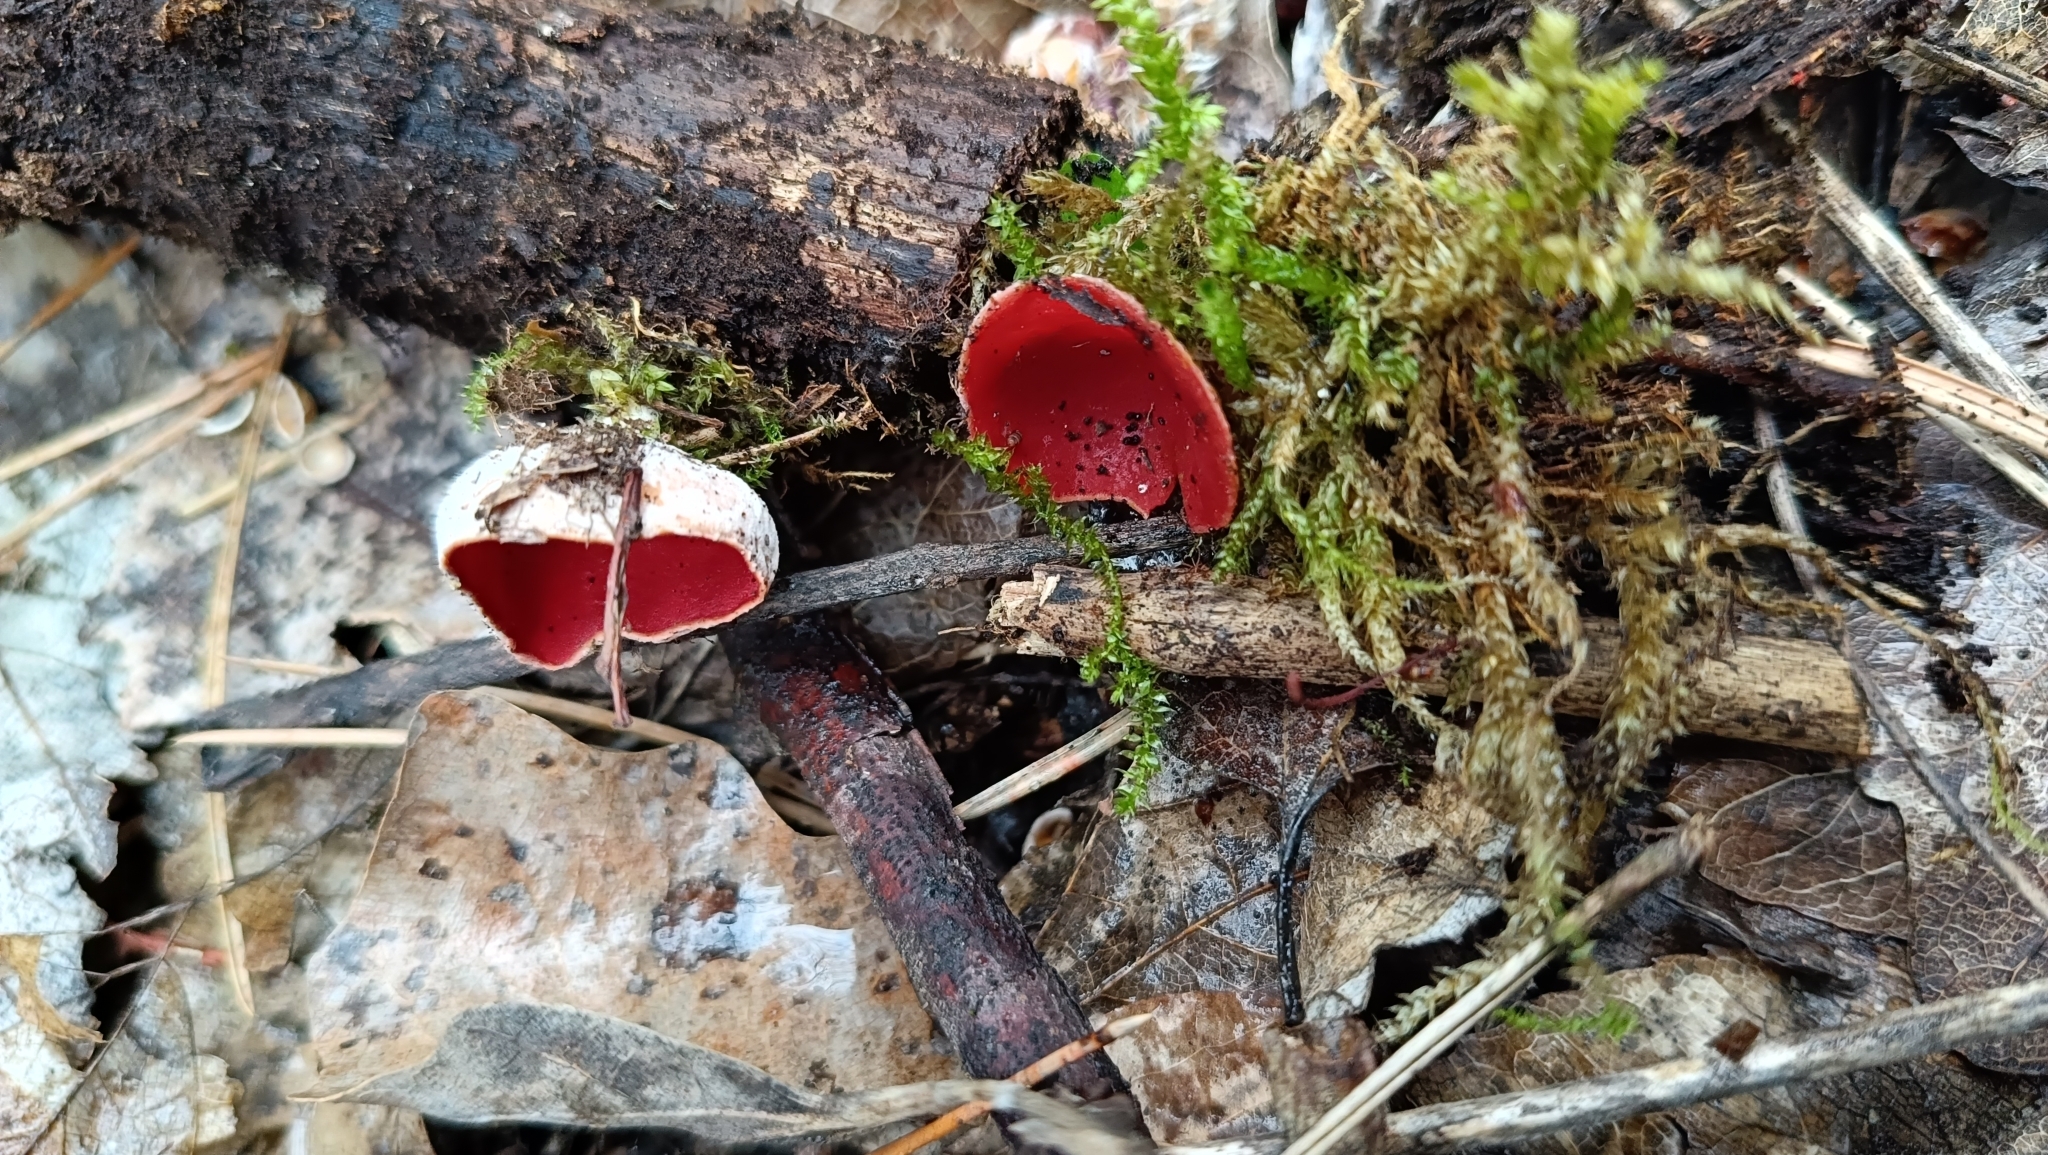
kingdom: Fungi
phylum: Ascomycota
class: Pezizomycetes
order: Pezizales
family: Sarcoscyphaceae
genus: Sarcoscypha
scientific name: Sarcoscypha
